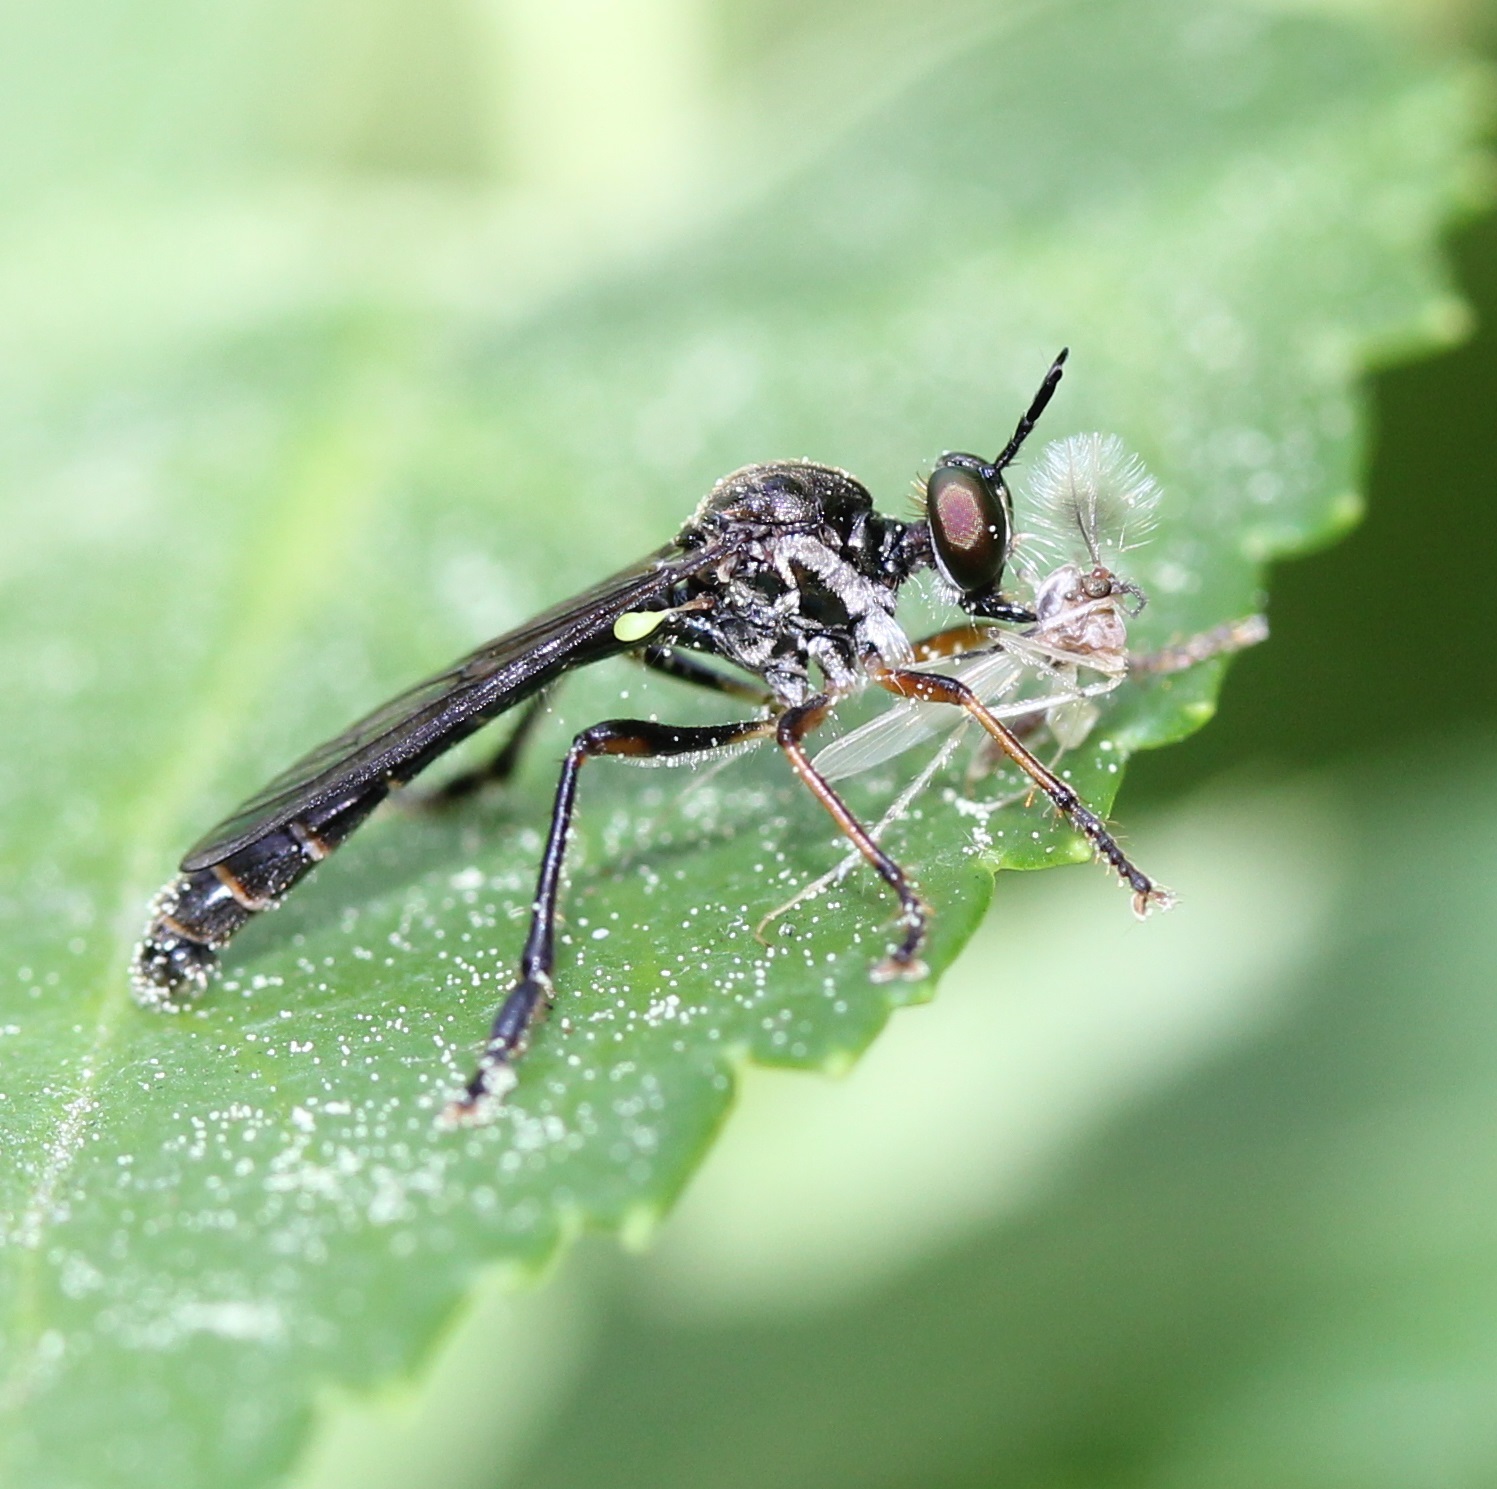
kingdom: Animalia
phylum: Arthropoda
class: Insecta
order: Diptera
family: Asilidae
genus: Dioctria
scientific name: Dioctria hyalipennis
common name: Stripe-legged robberfly
